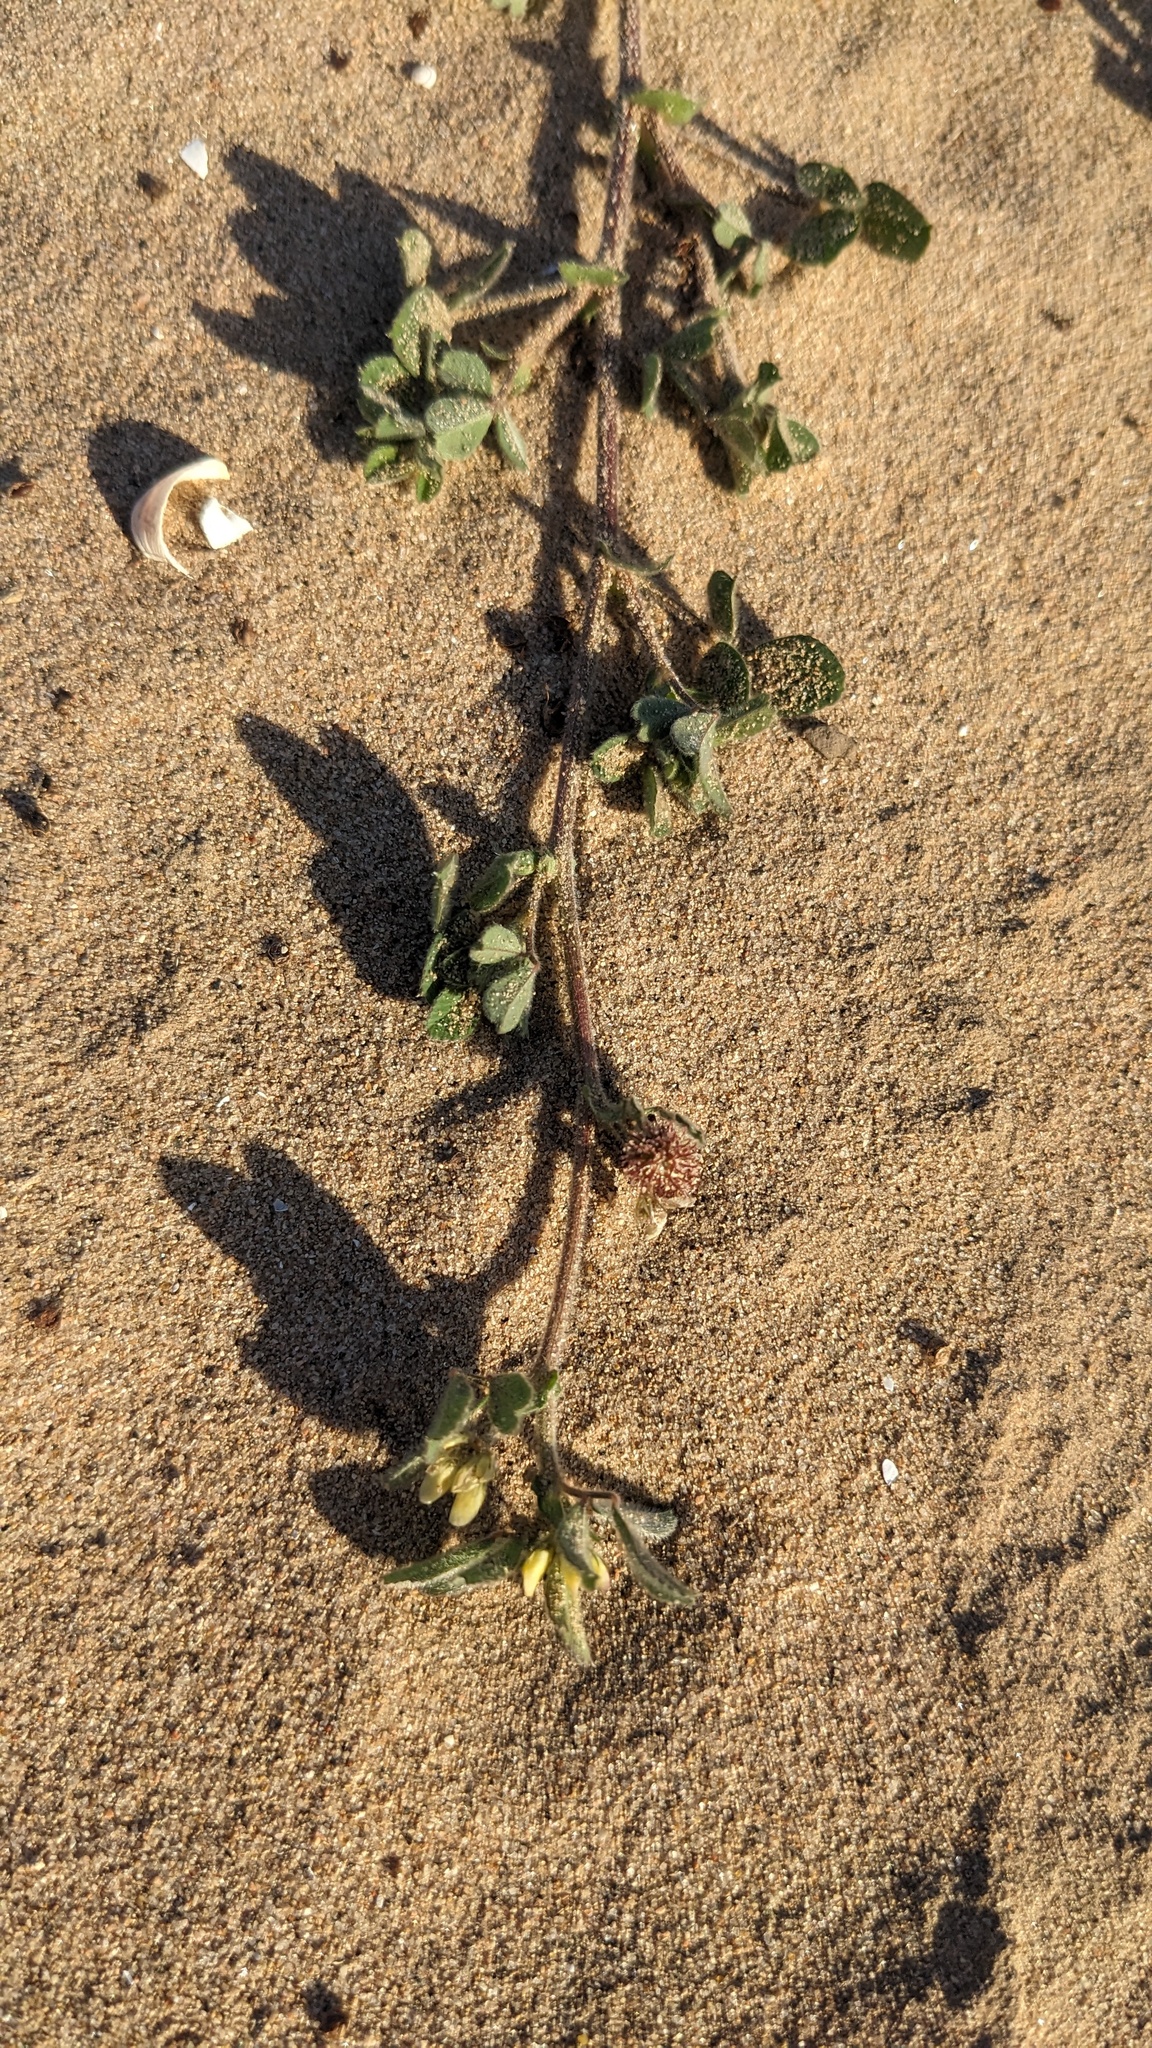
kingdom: Plantae
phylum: Tracheophyta
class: Magnoliopsida
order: Fabales
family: Fabaceae
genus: Medicago
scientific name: Medicago minima
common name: Little bur-clover
